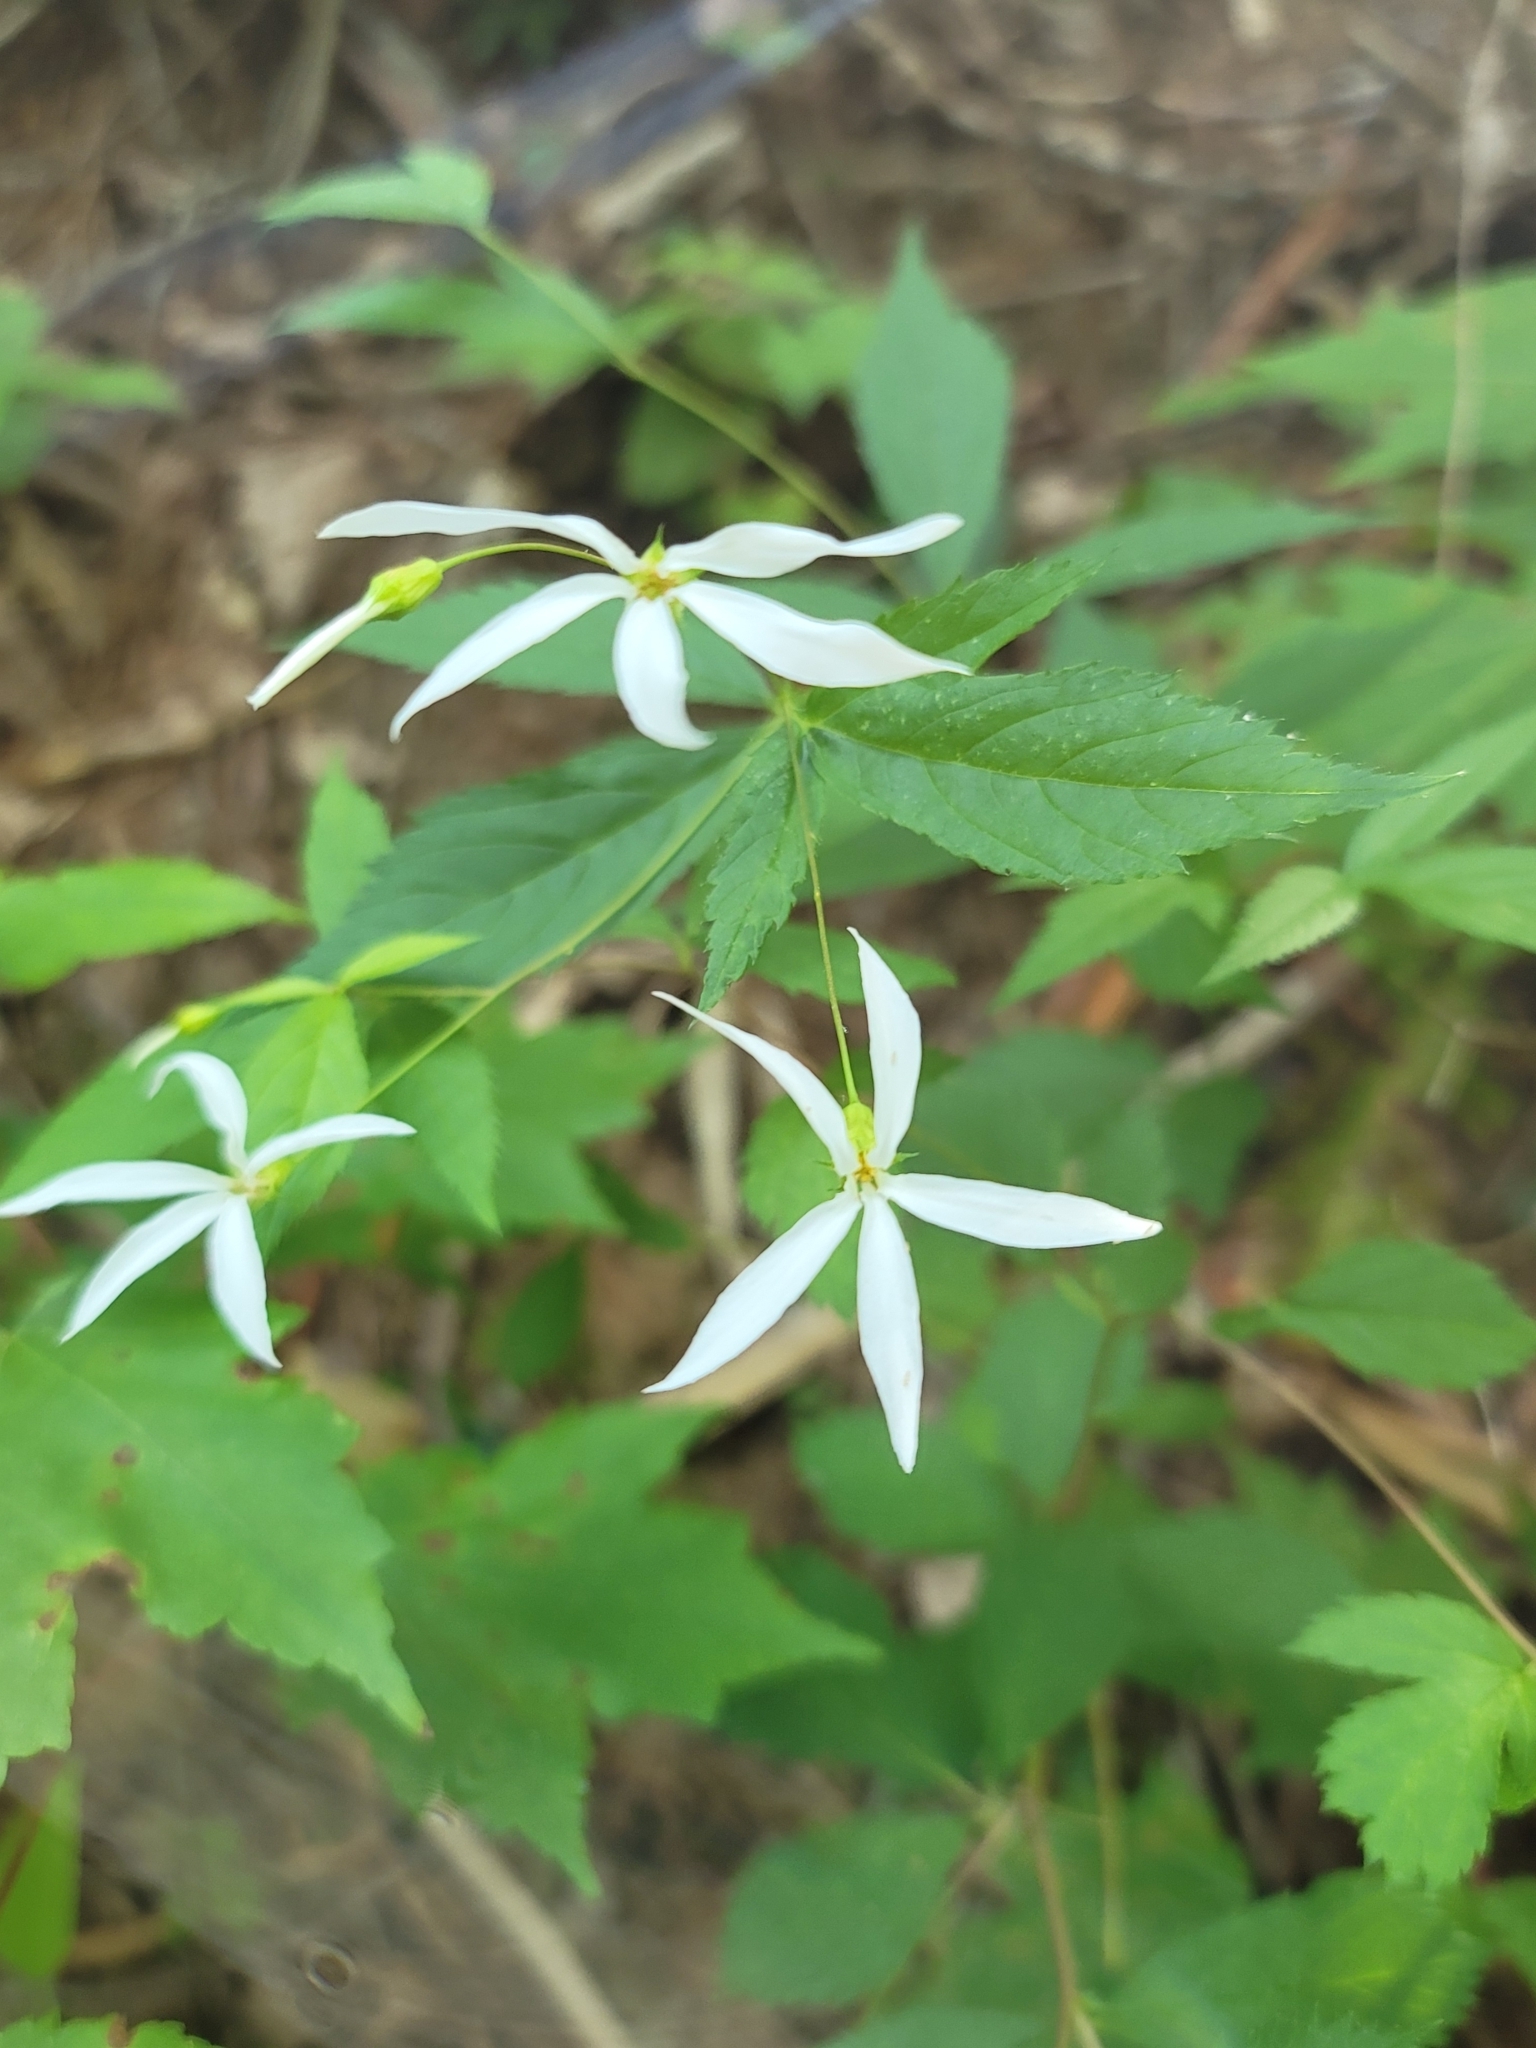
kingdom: Plantae
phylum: Tracheophyta
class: Magnoliopsida
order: Rosales
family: Rosaceae
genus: Gillenia
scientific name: Gillenia trifoliata
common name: Bowman's-root
